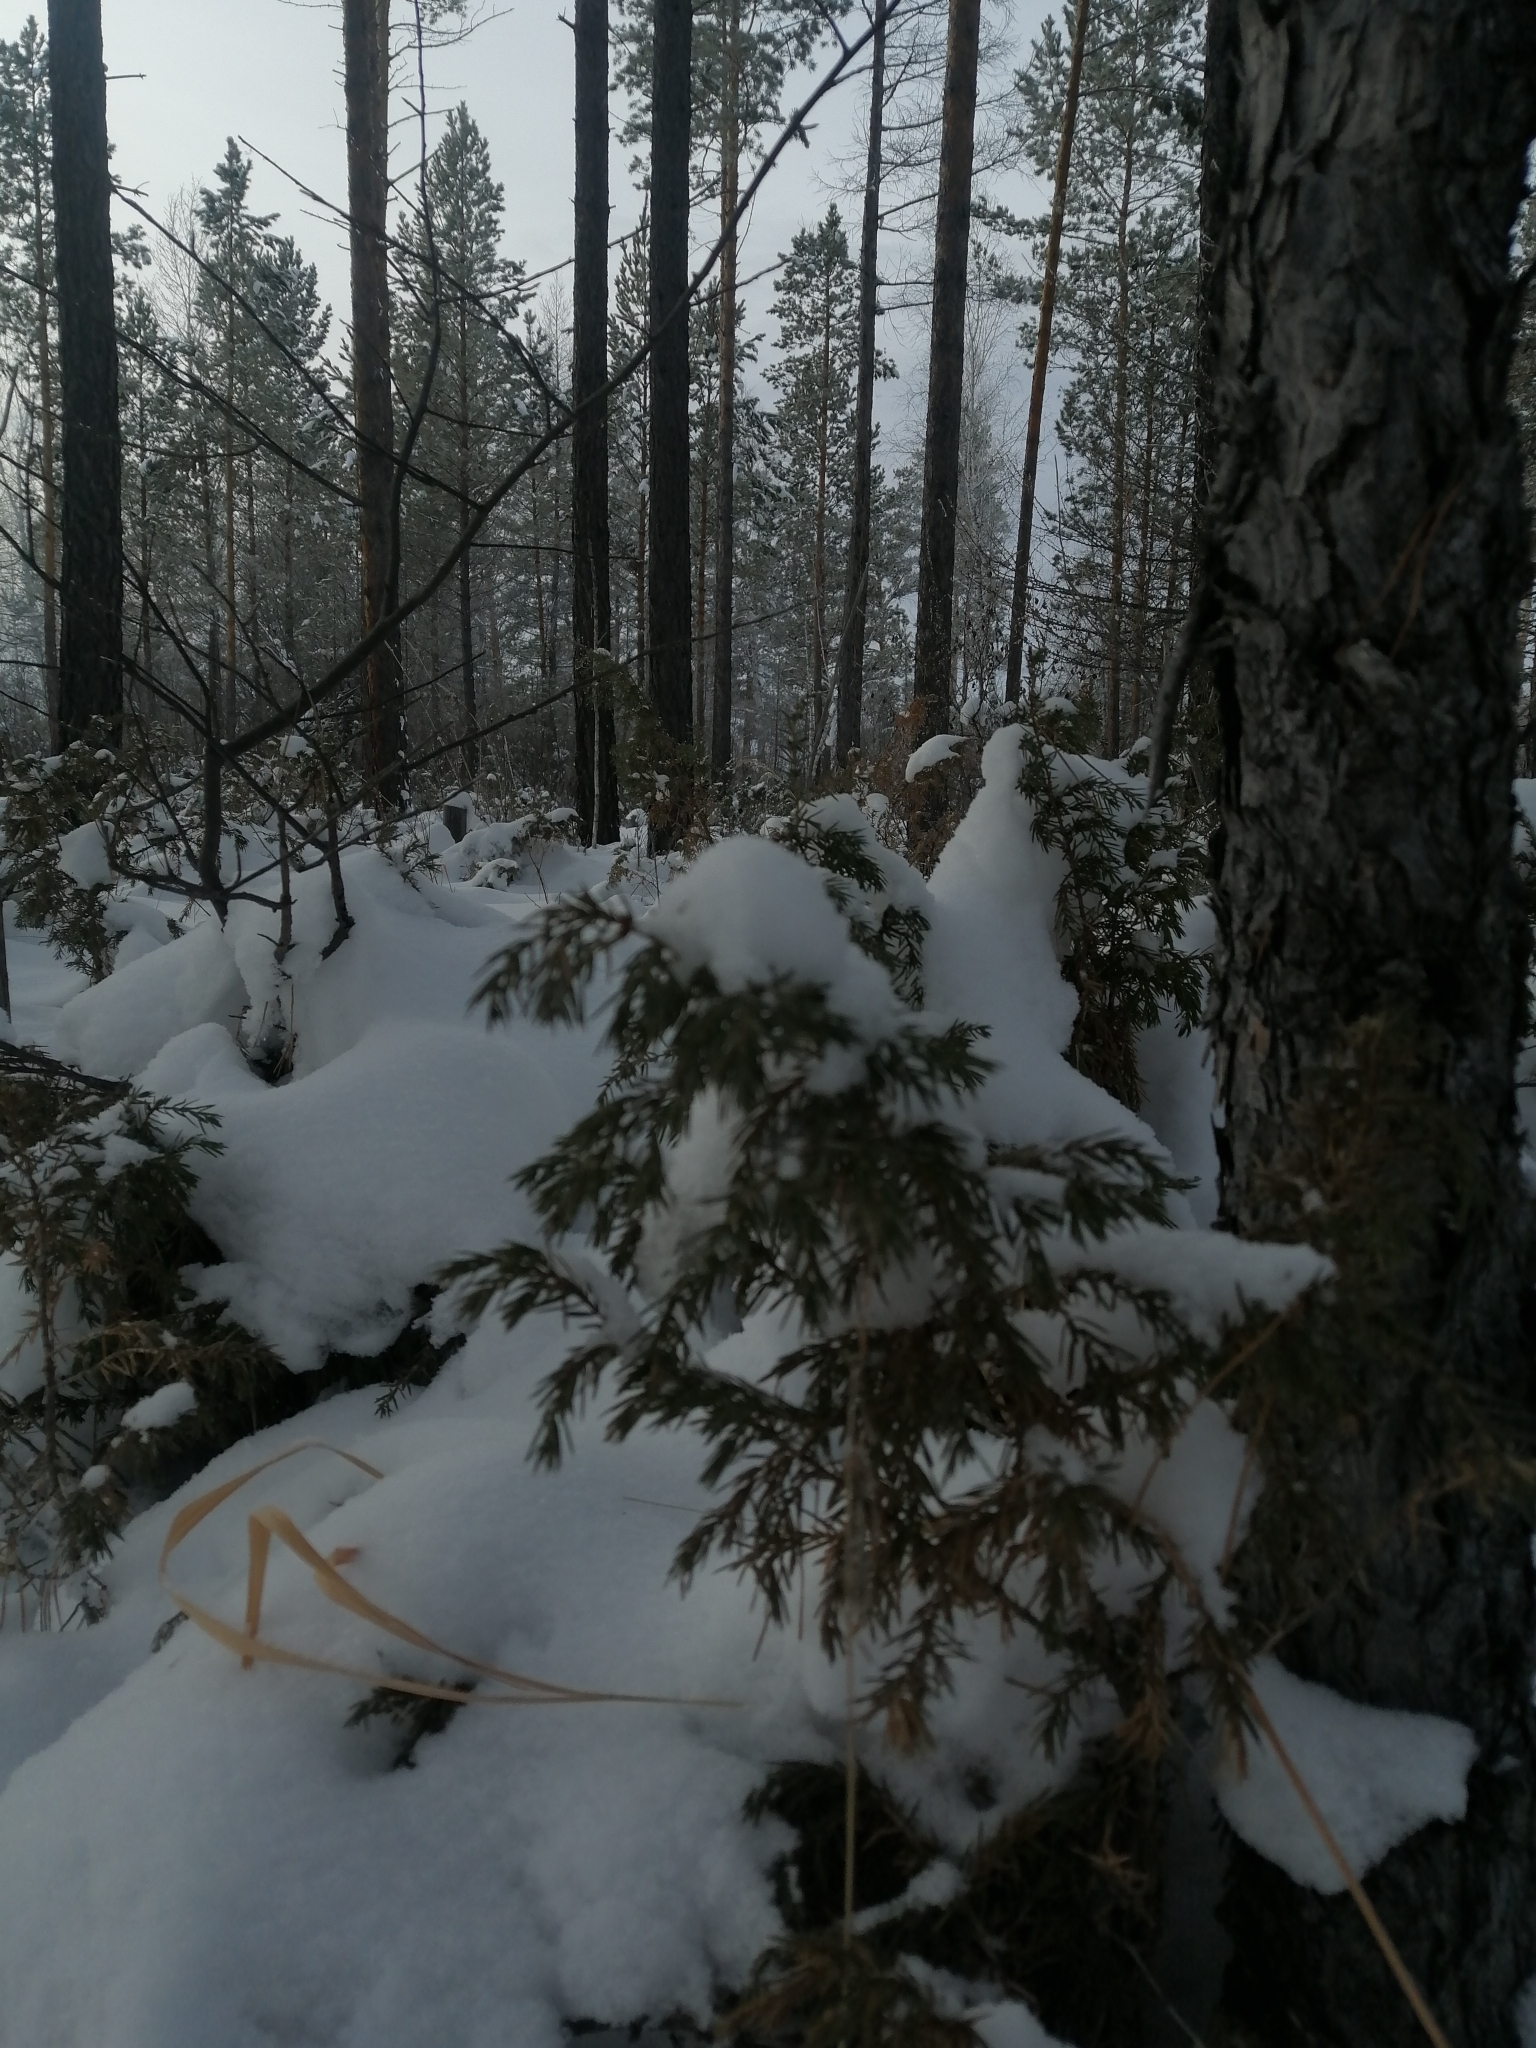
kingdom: Plantae
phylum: Tracheophyta
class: Pinopsida
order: Pinales
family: Cupressaceae
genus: Juniperus
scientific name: Juniperus communis
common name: Common juniper
